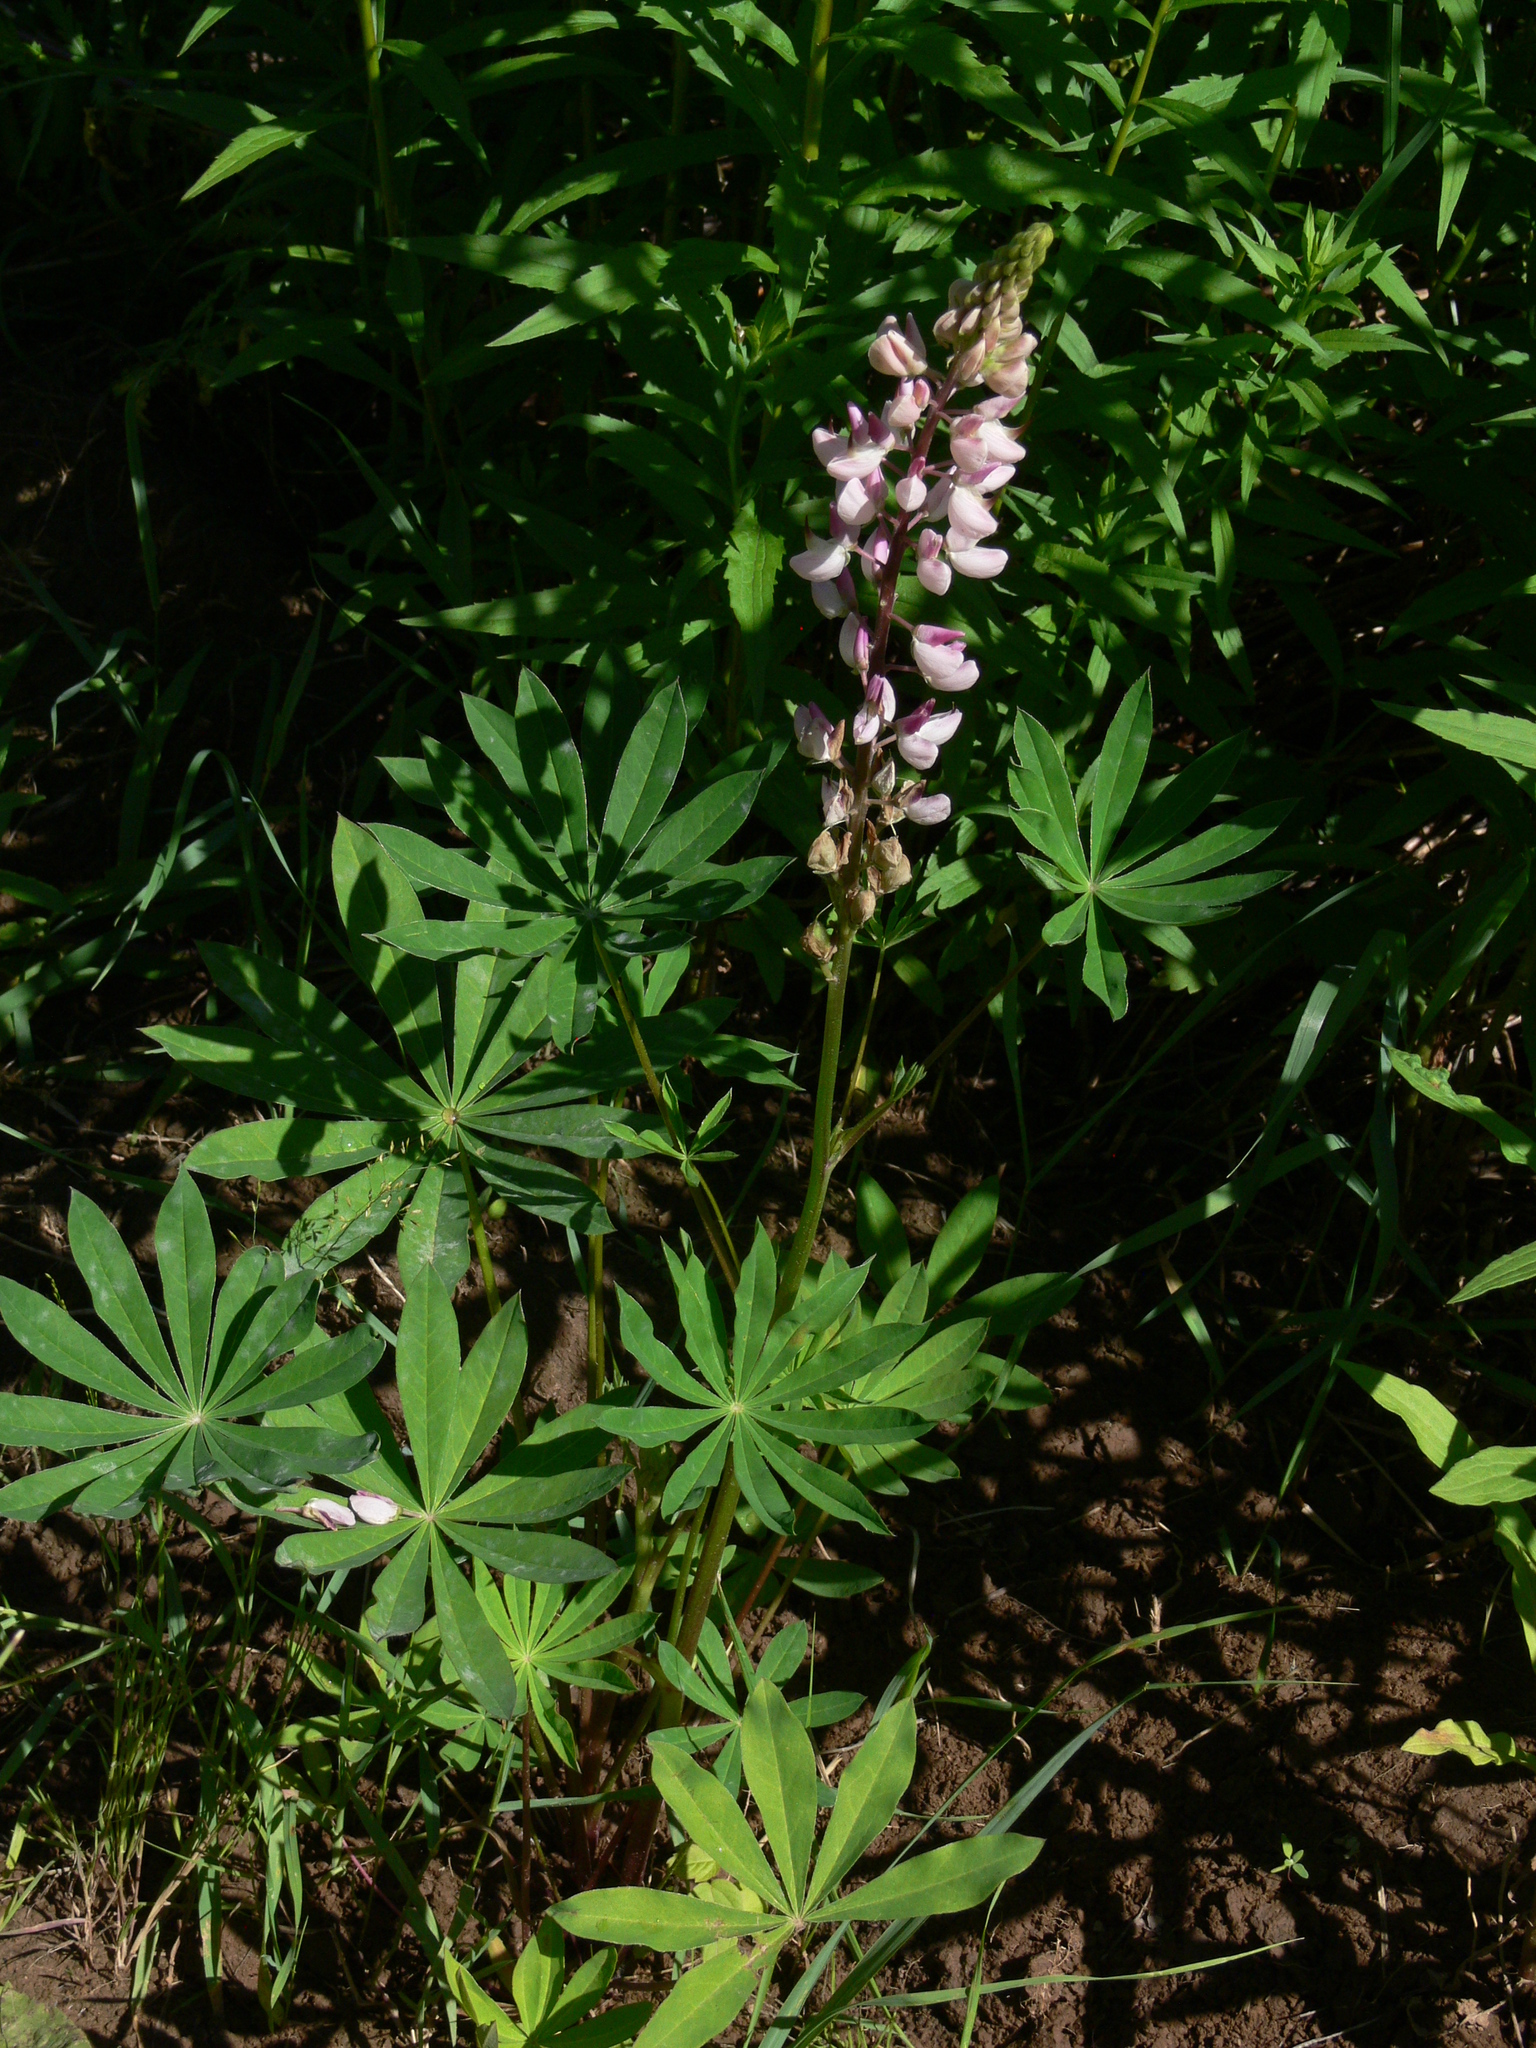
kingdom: Plantae
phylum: Tracheophyta
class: Magnoliopsida
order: Fabales
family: Fabaceae
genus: Lupinus
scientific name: Lupinus polyphyllus
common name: Garden lupin
